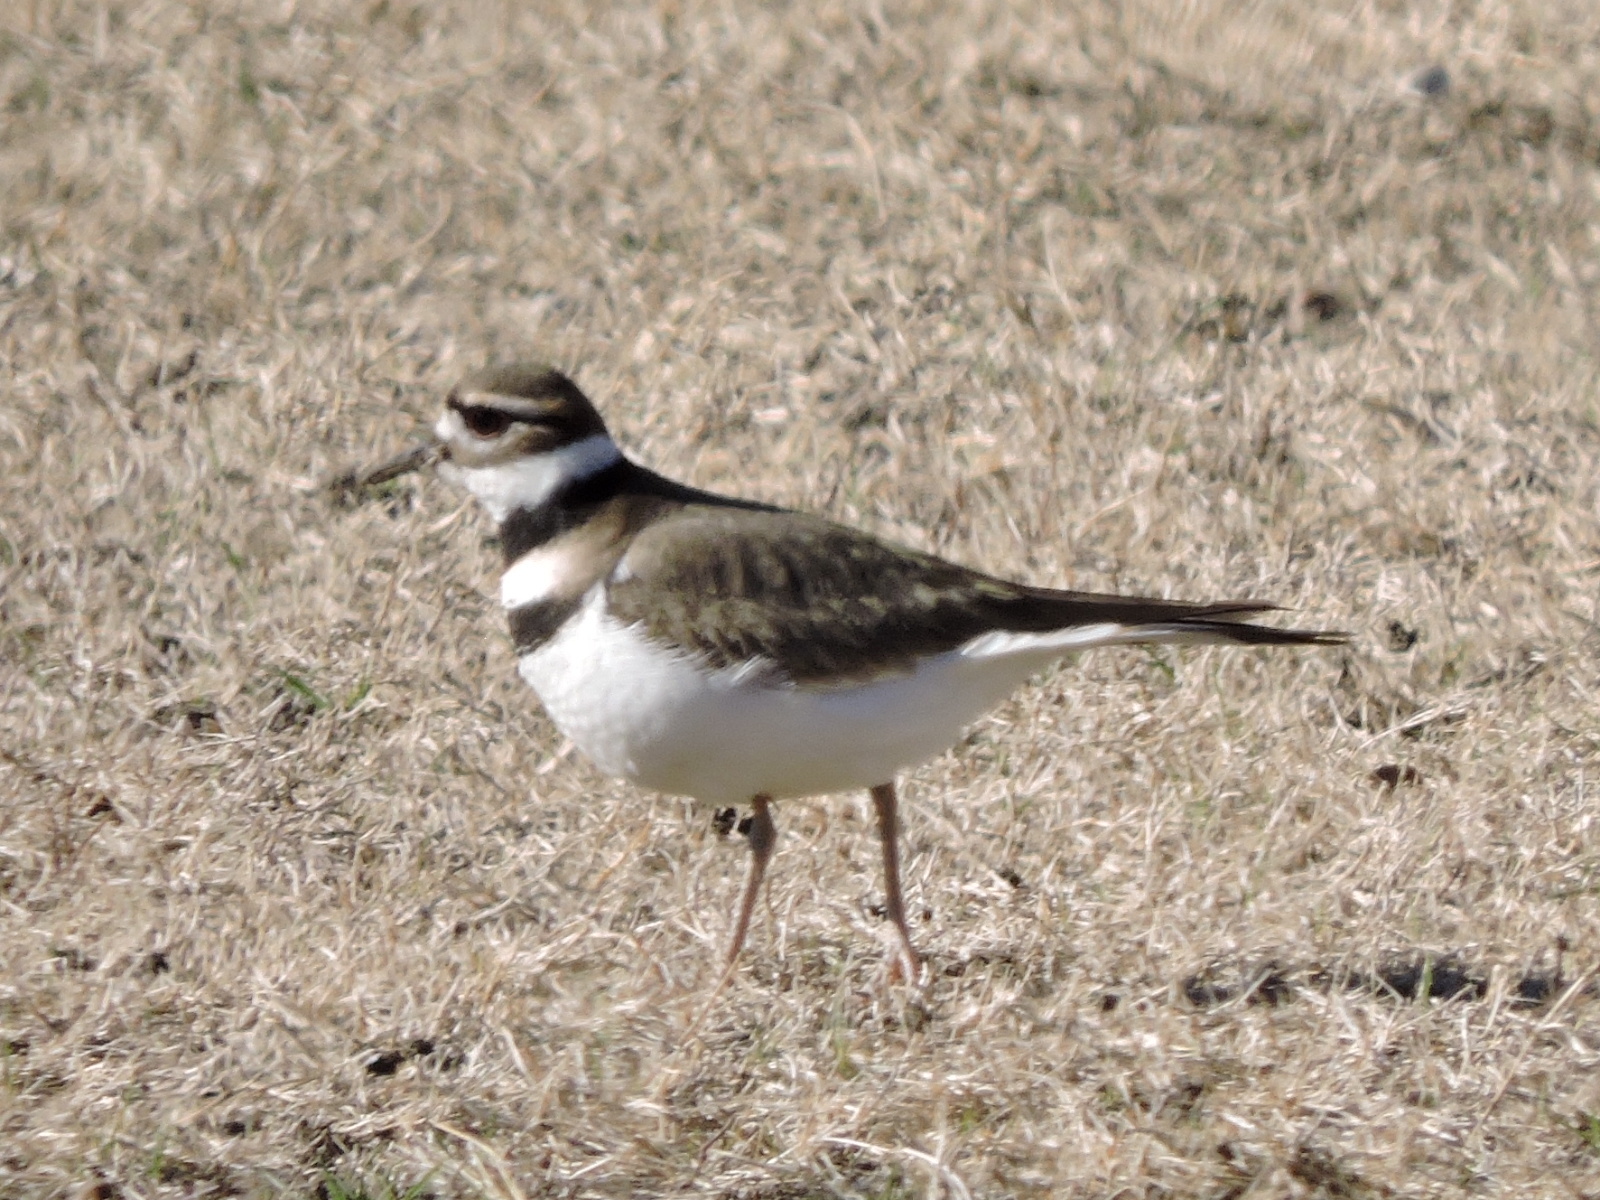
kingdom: Animalia
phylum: Chordata
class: Aves
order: Charadriiformes
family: Charadriidae
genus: Charadrius
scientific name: Charadrius vociferus
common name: Killdeer
